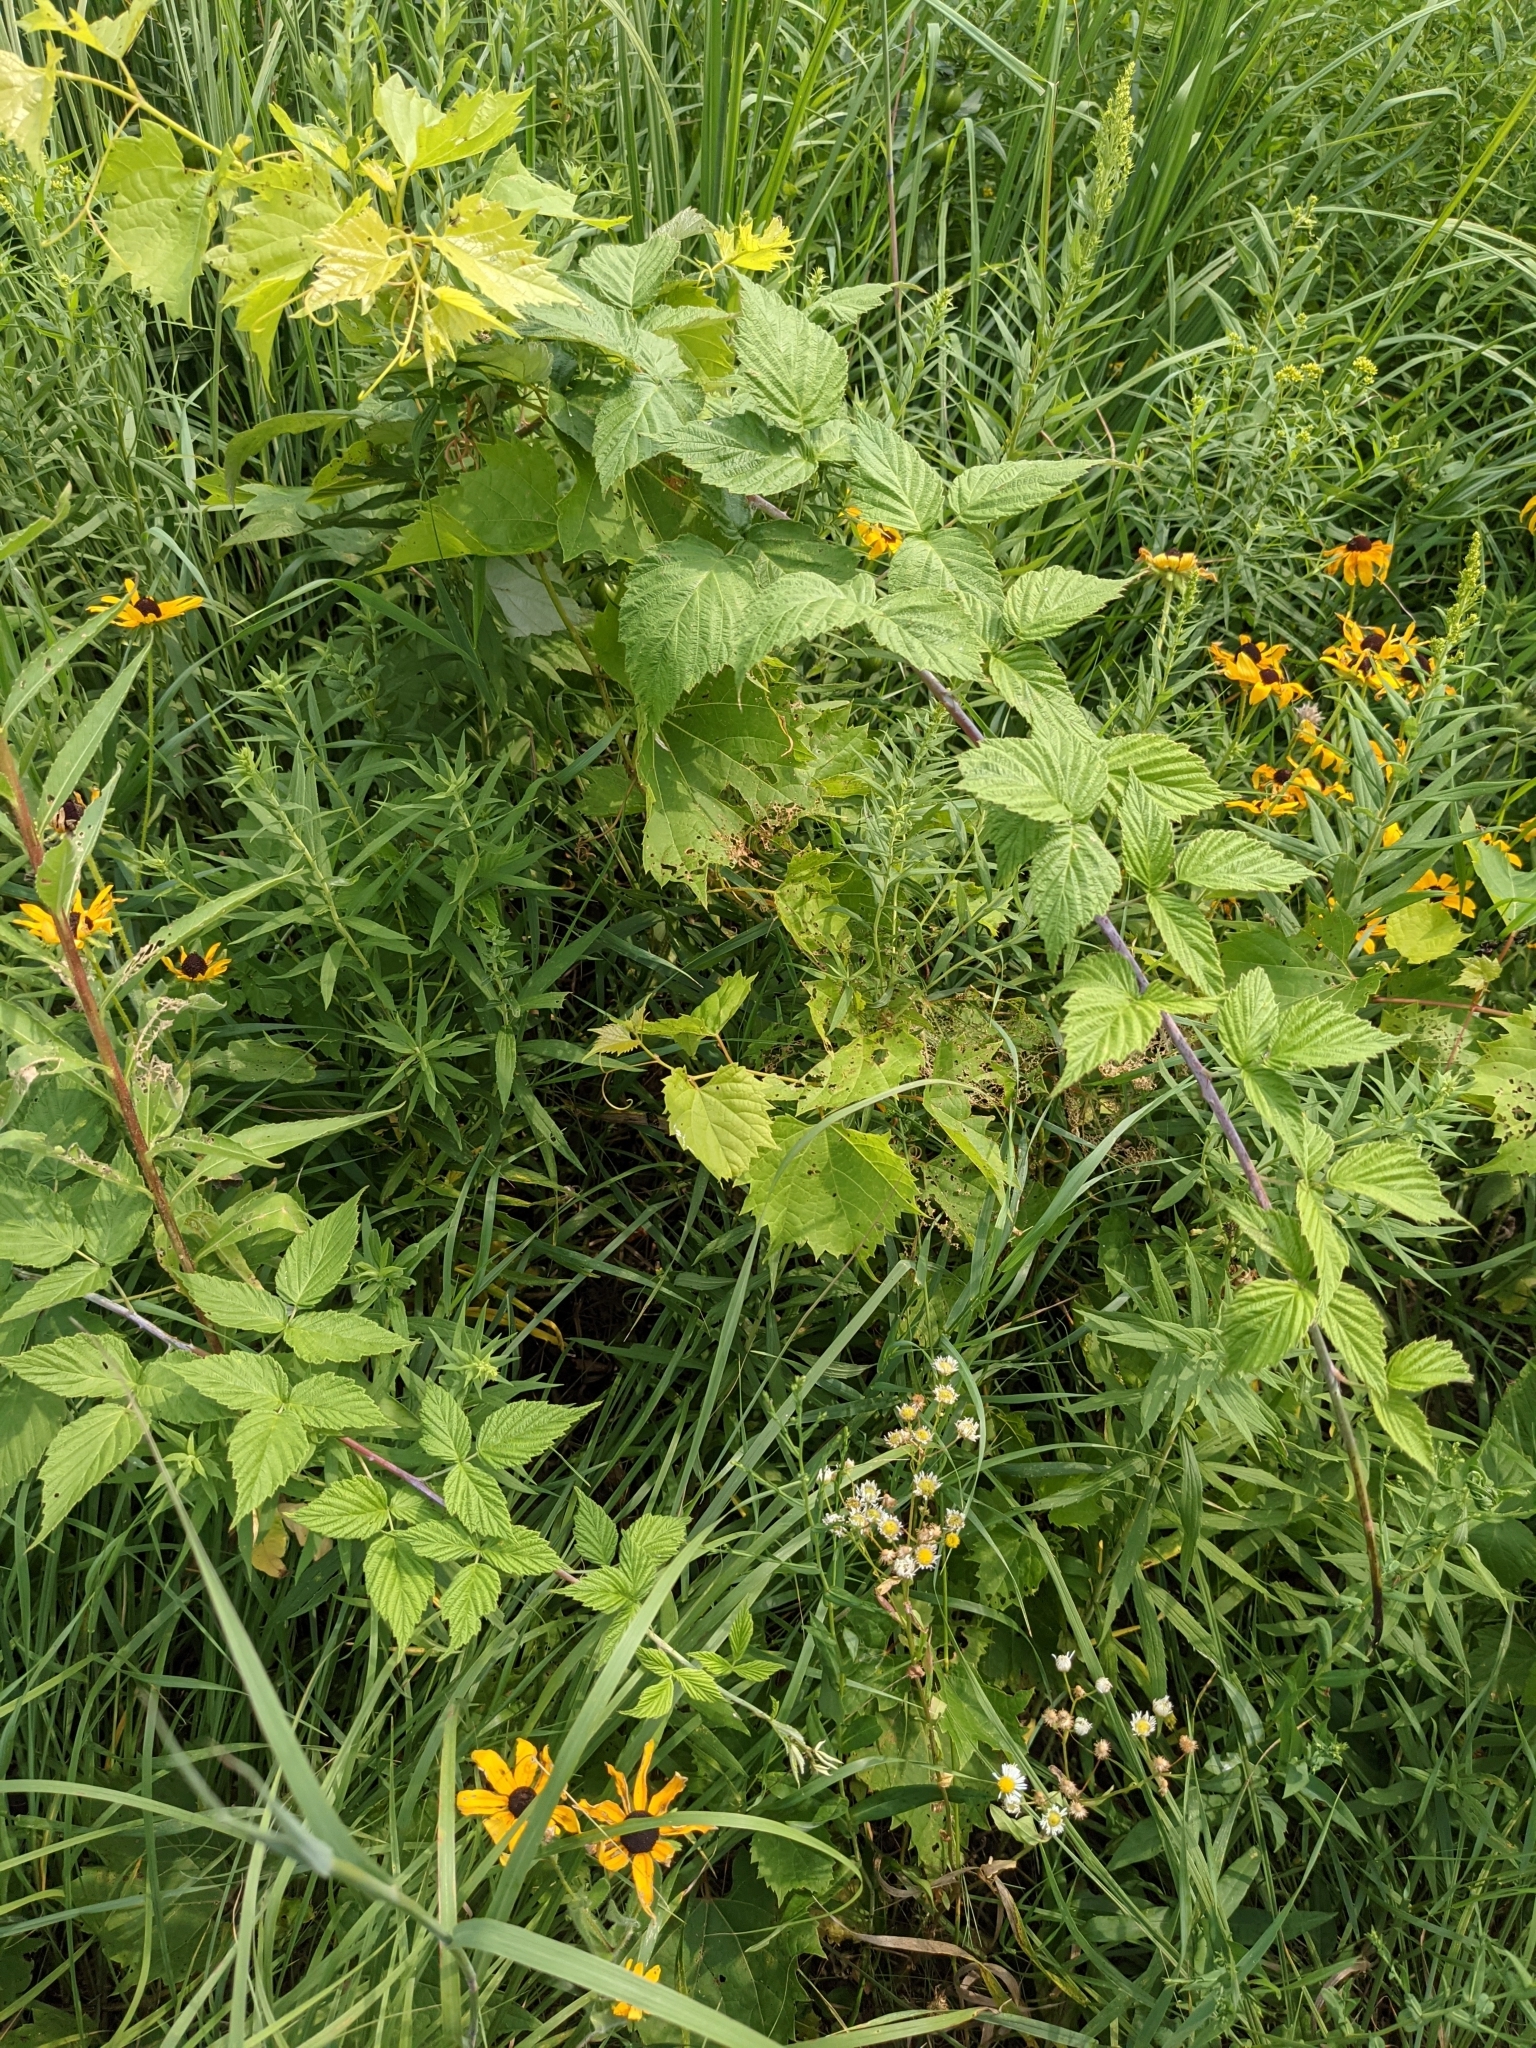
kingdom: Plantae
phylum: Tracheophyta
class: Magnoliopsida
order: Rosales
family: Rosaceae
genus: Rubus
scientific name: Rubus occidentalis
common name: Black raspberry
